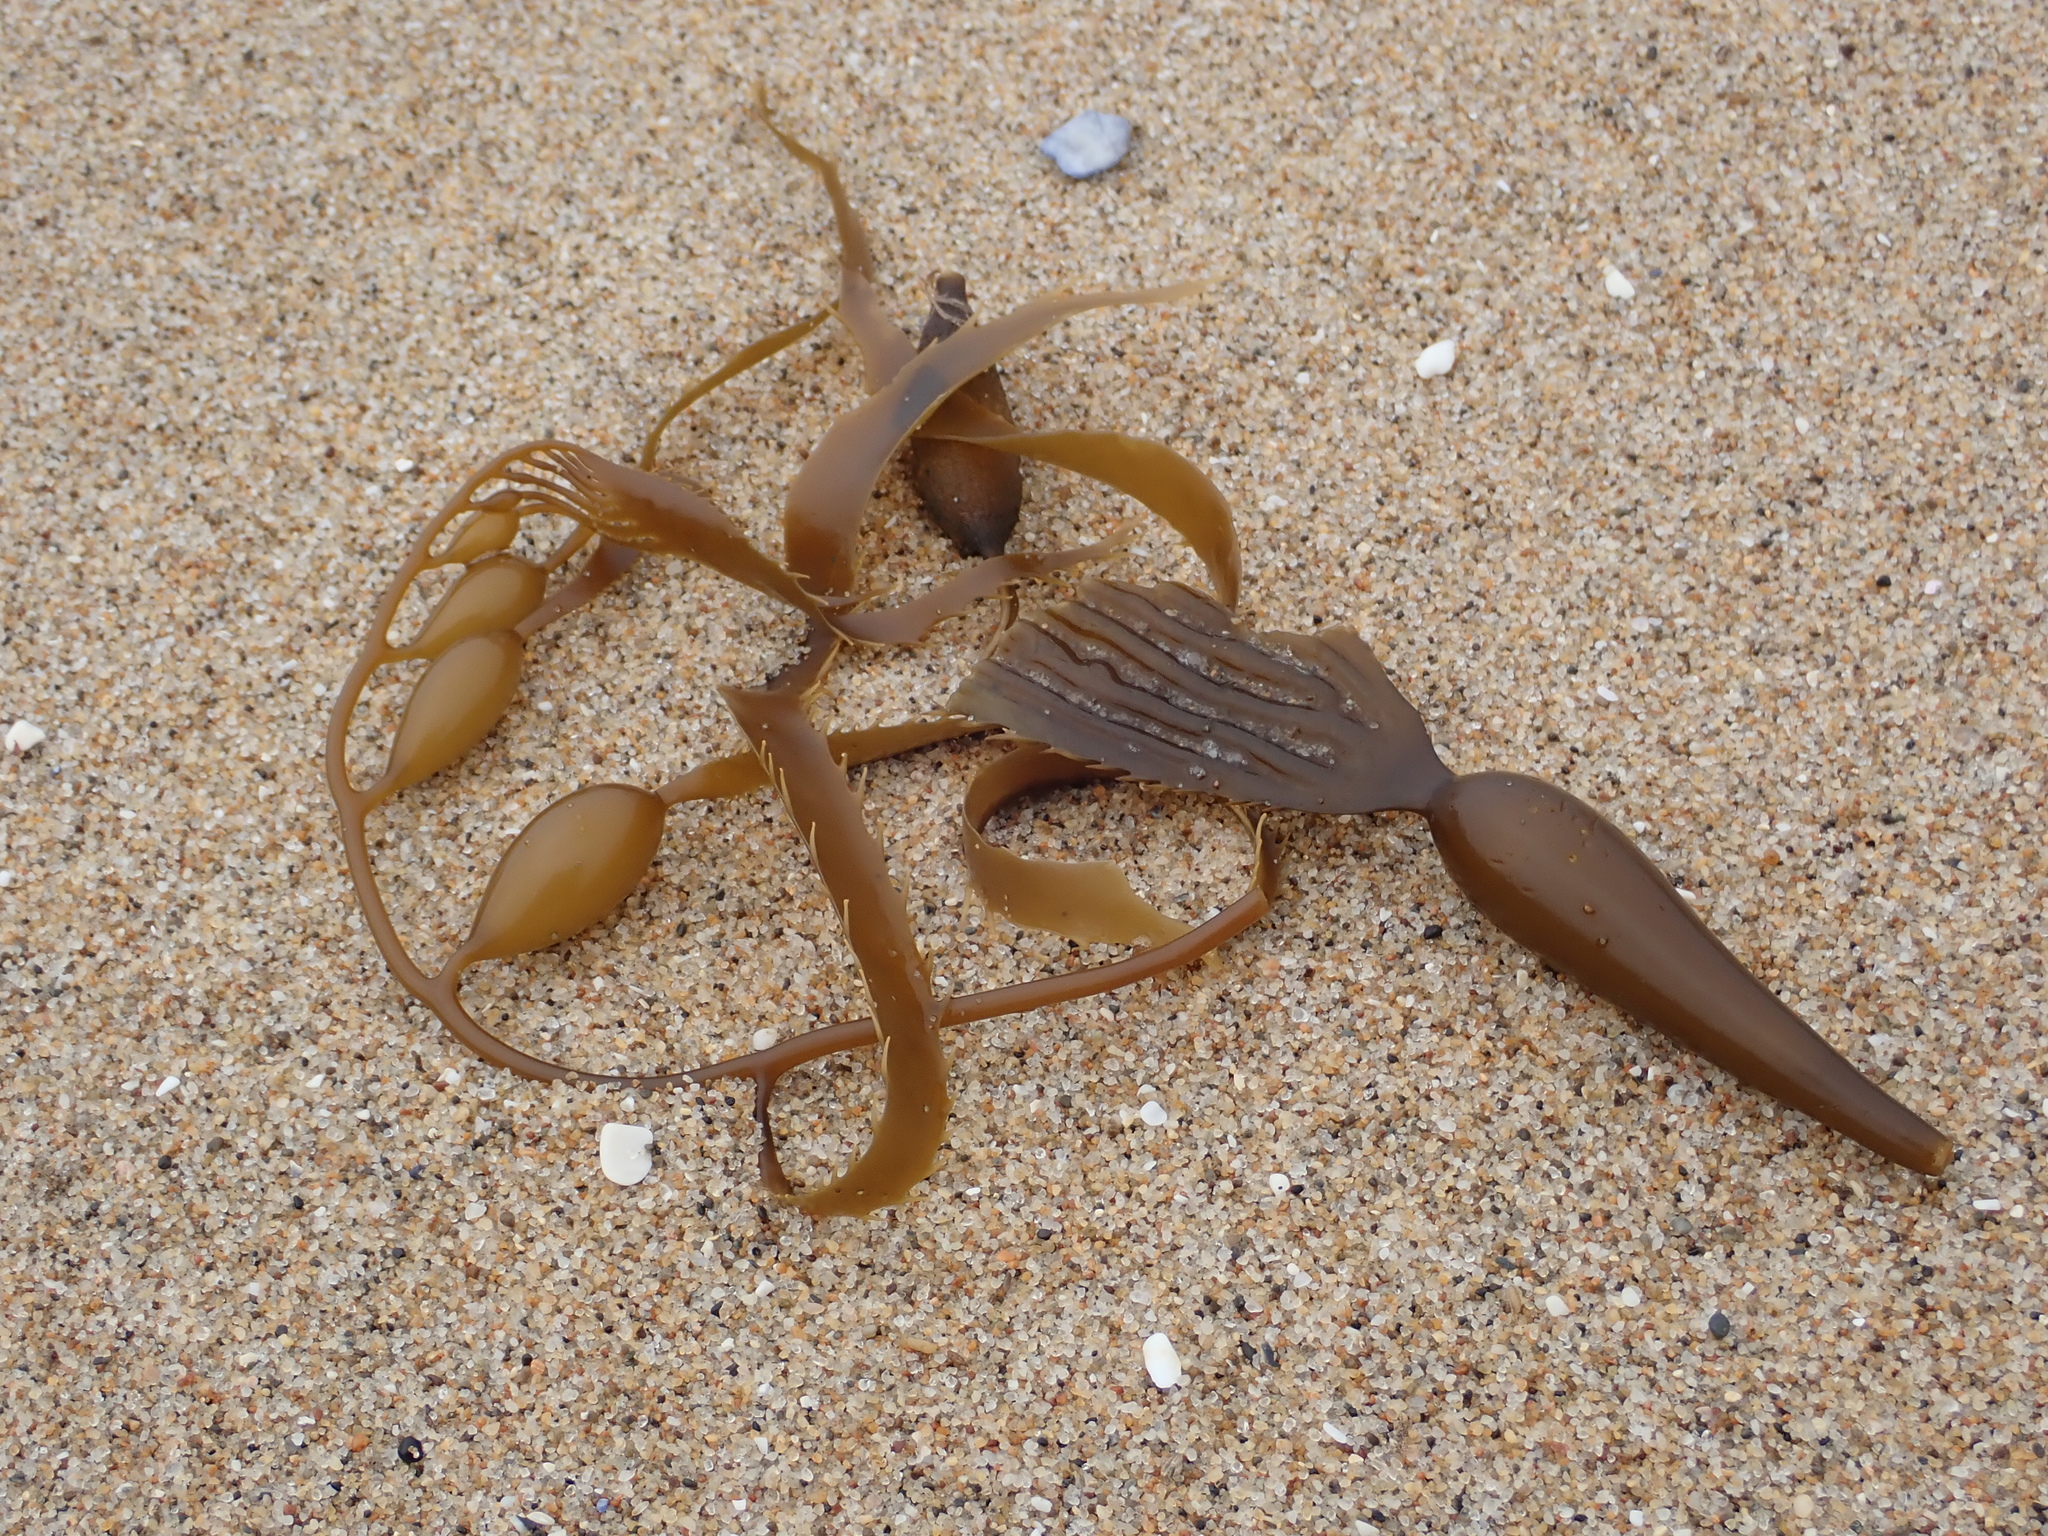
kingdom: Chromista
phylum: Ochrophyta
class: Phaeophyceae
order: Laminariales
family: Laminariaceae
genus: Macrocystis
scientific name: Macrocystis pyrifera
